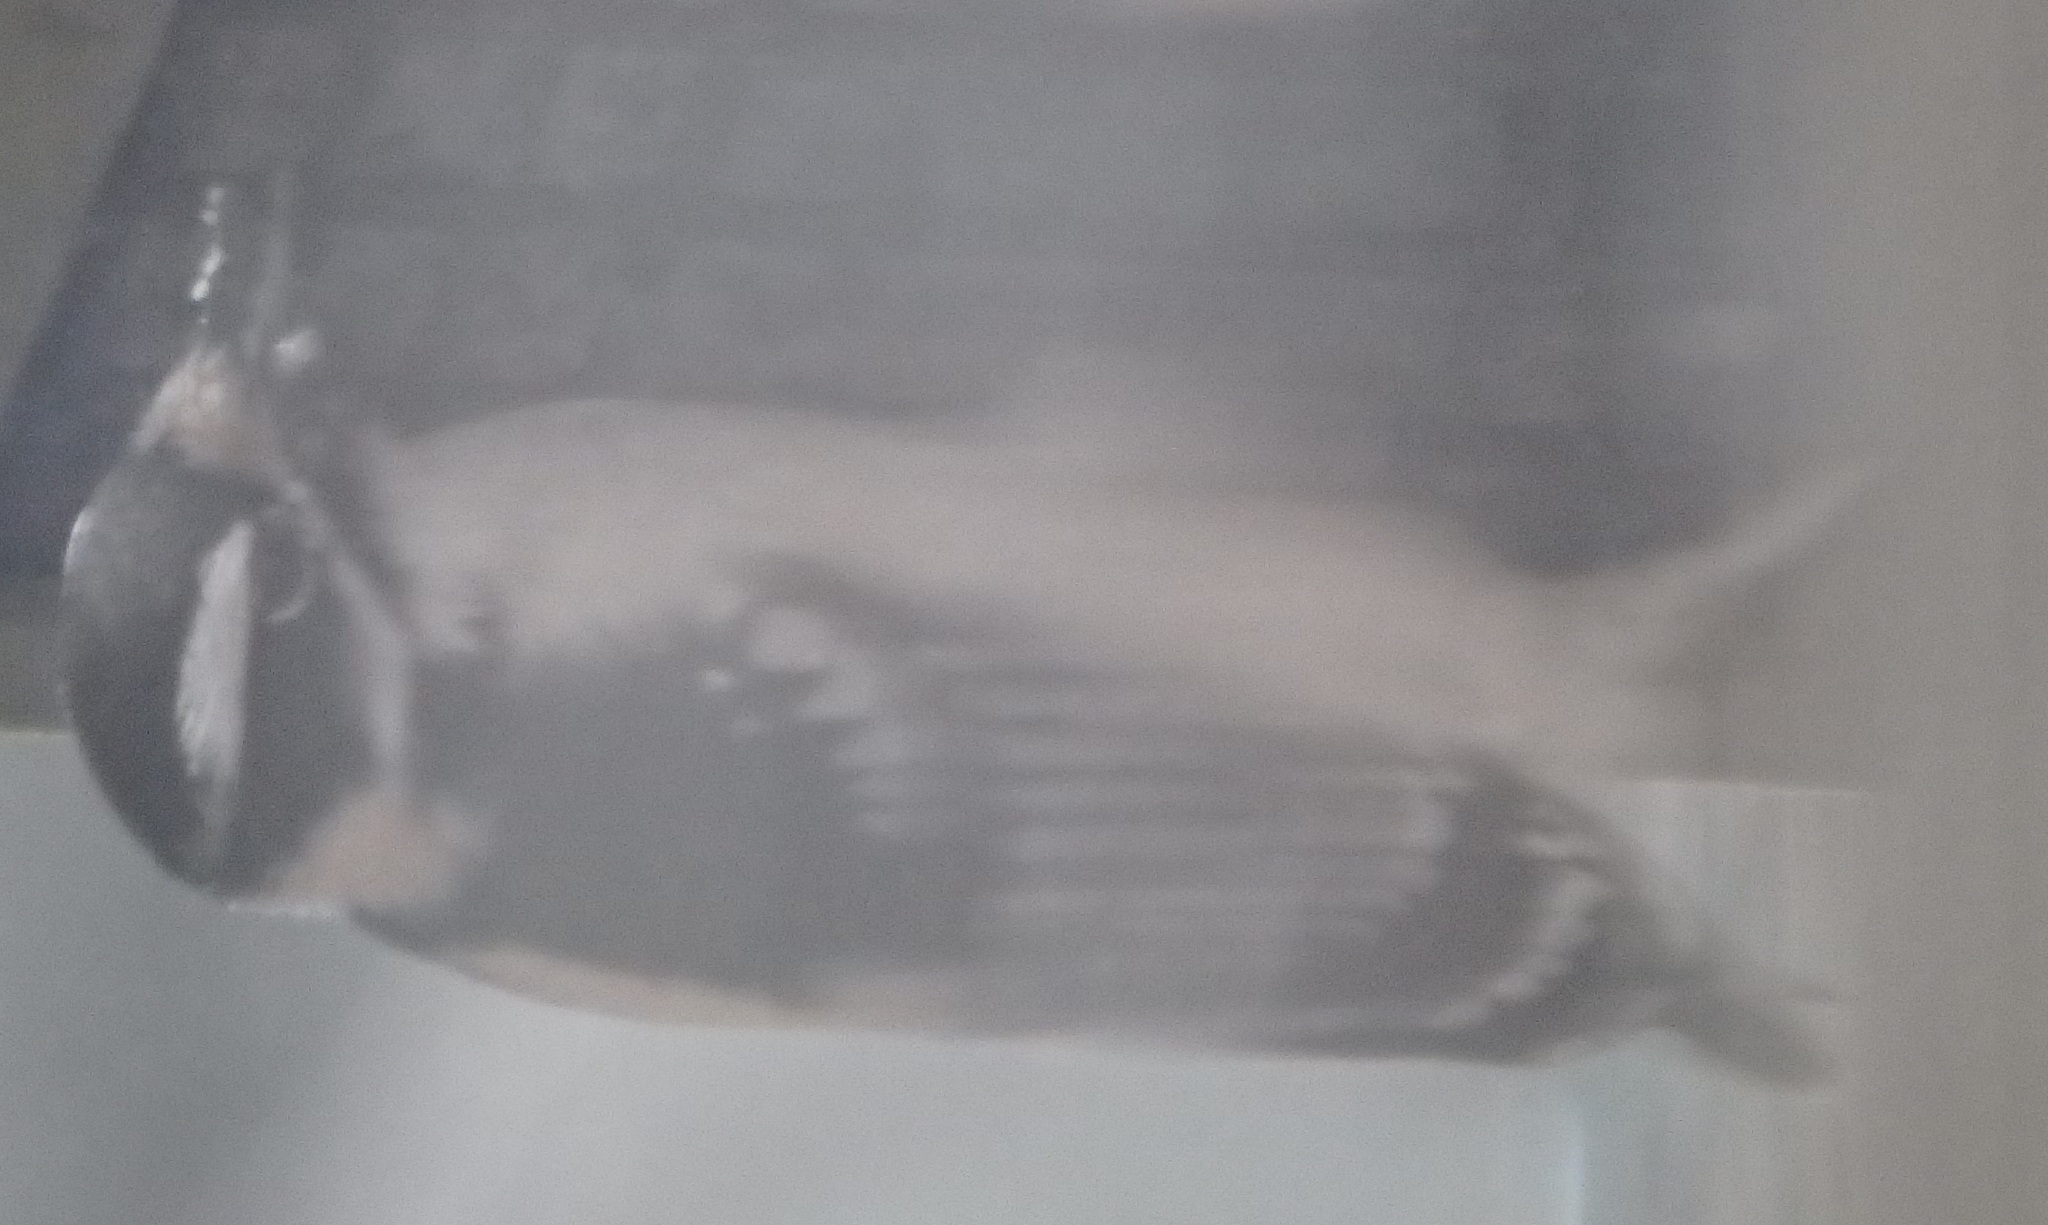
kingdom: Animalia
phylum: Chordata
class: Aves
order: Piciformes
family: Picidae
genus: Dryobates
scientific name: Dryobates pubescens
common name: Downy woodpecker
